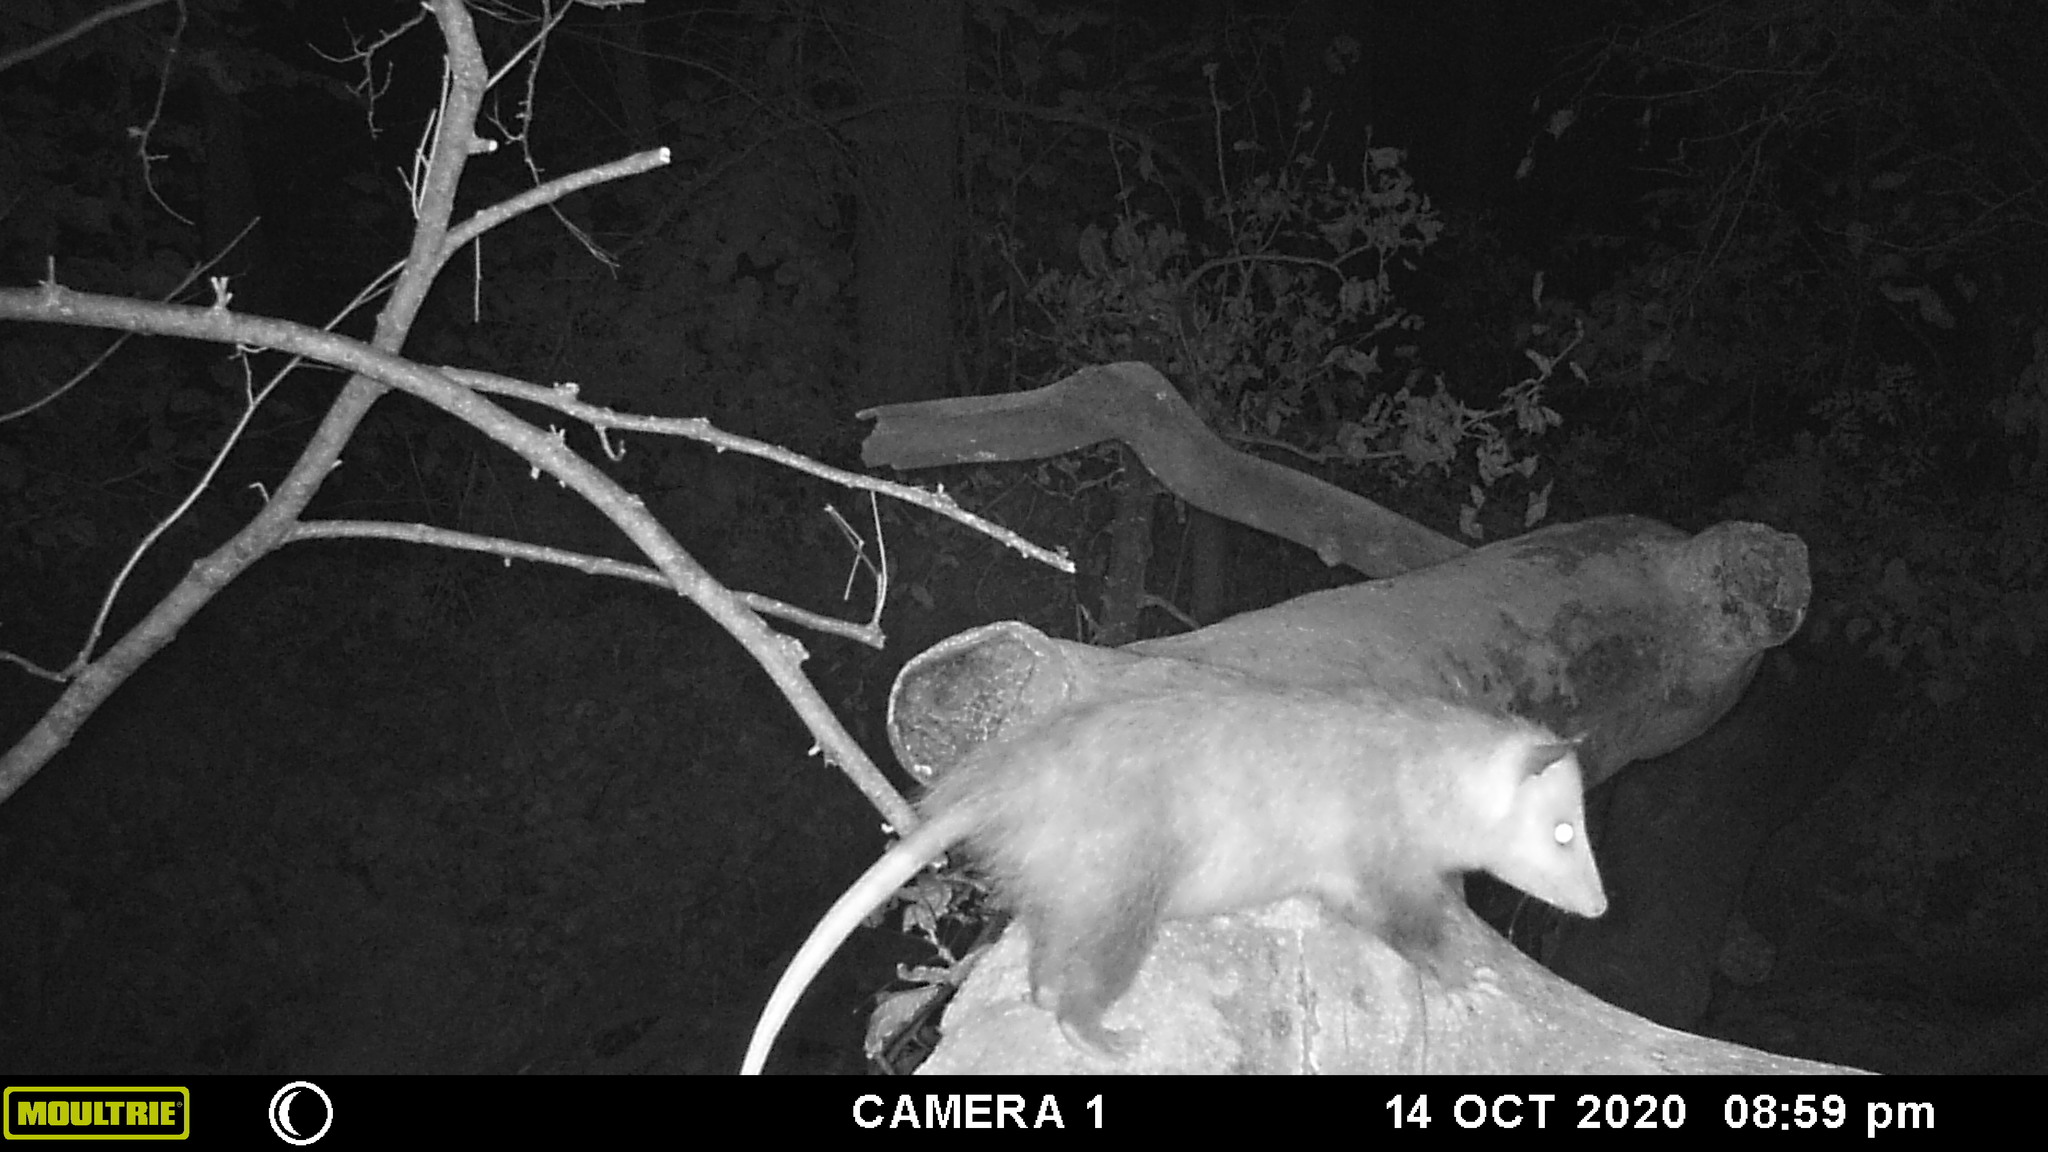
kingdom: Animalia
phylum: Chordata
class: Mammalia
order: Didelphimorphia
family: Didelphidae
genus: Didelphis
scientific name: Didelphis virginiana
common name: Virginia opossum
